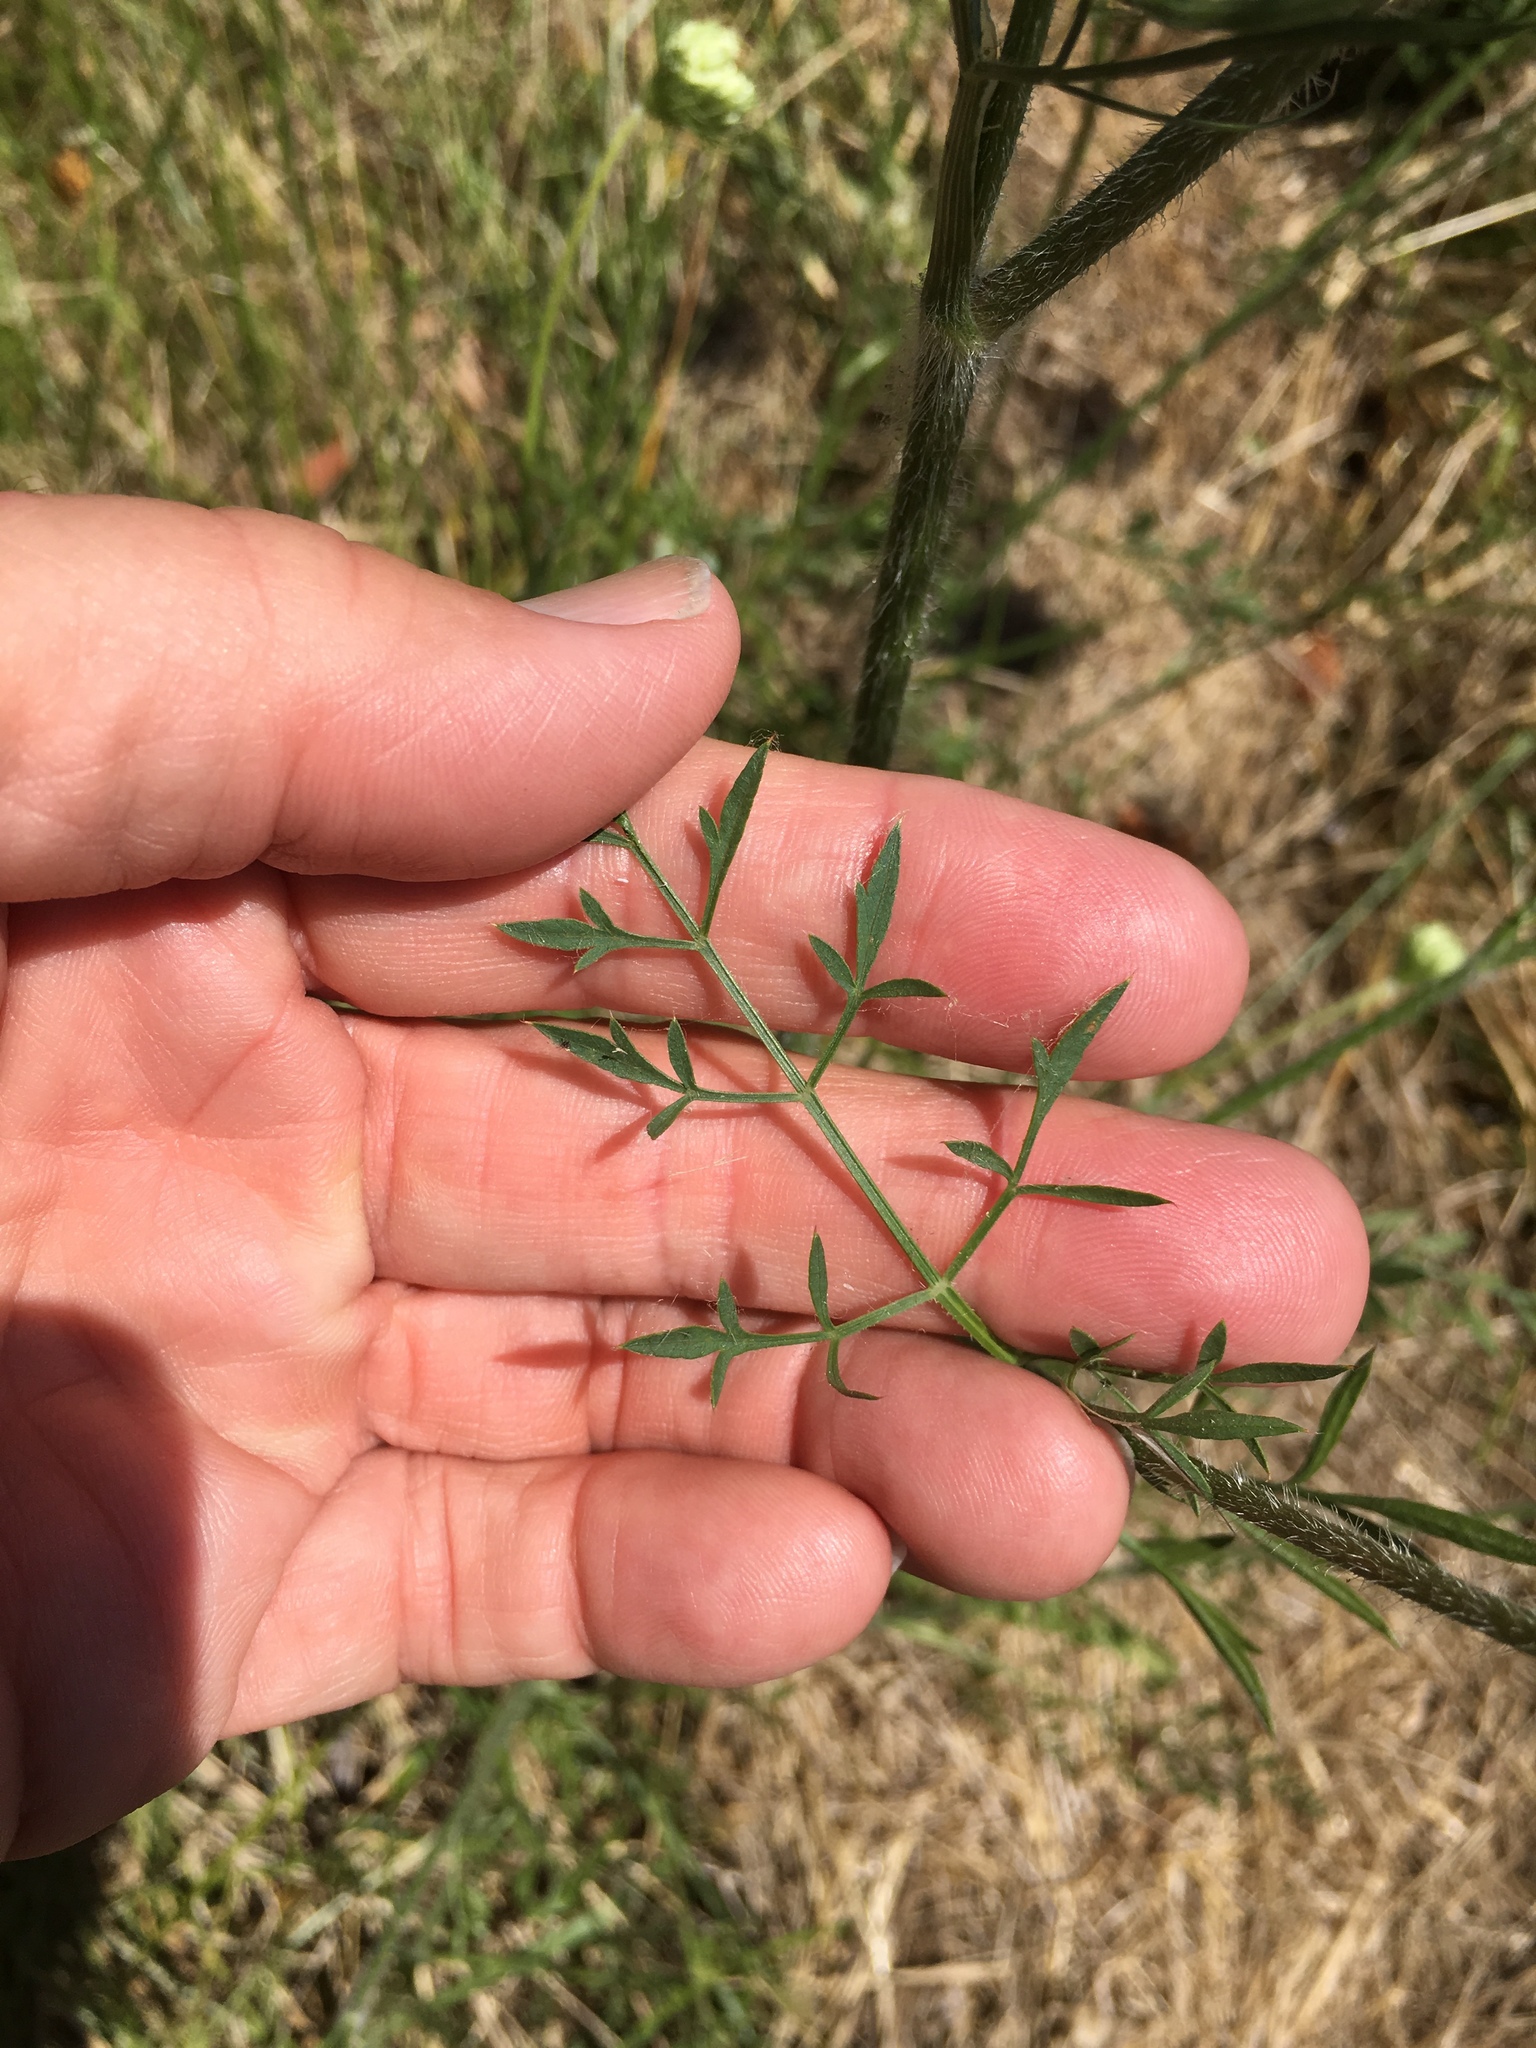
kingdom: Plantae
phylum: Tracheophyta
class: Magnoliopsida
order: Apiales
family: Apiaceae
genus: Daucus
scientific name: Daucus carota
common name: Wild carrot
